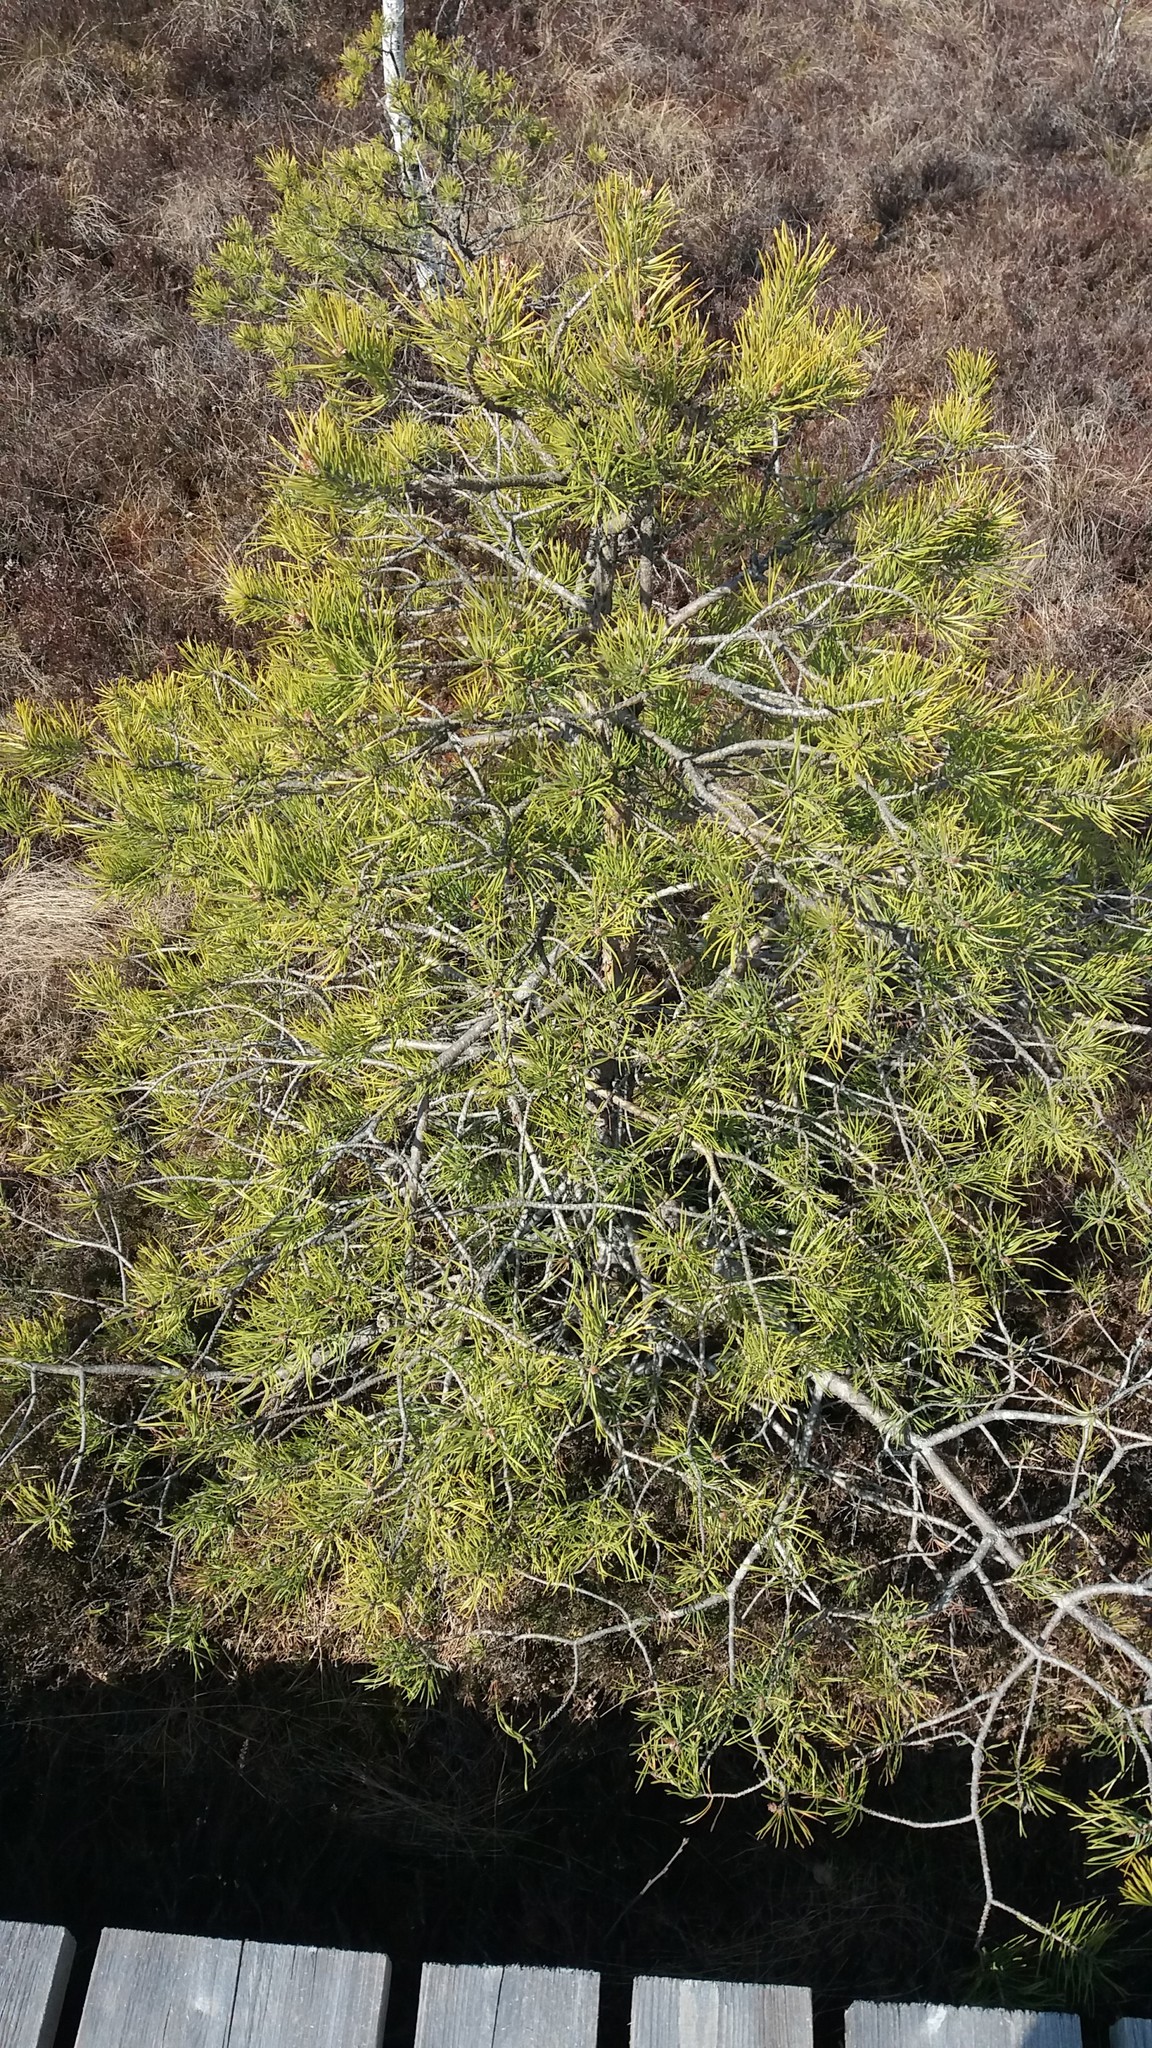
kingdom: Plantae
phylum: Tracheophyta
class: Pinopsida
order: Pinales
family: Pinaceae
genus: Pinus
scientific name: Pinus sylvestris
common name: Scots pine
